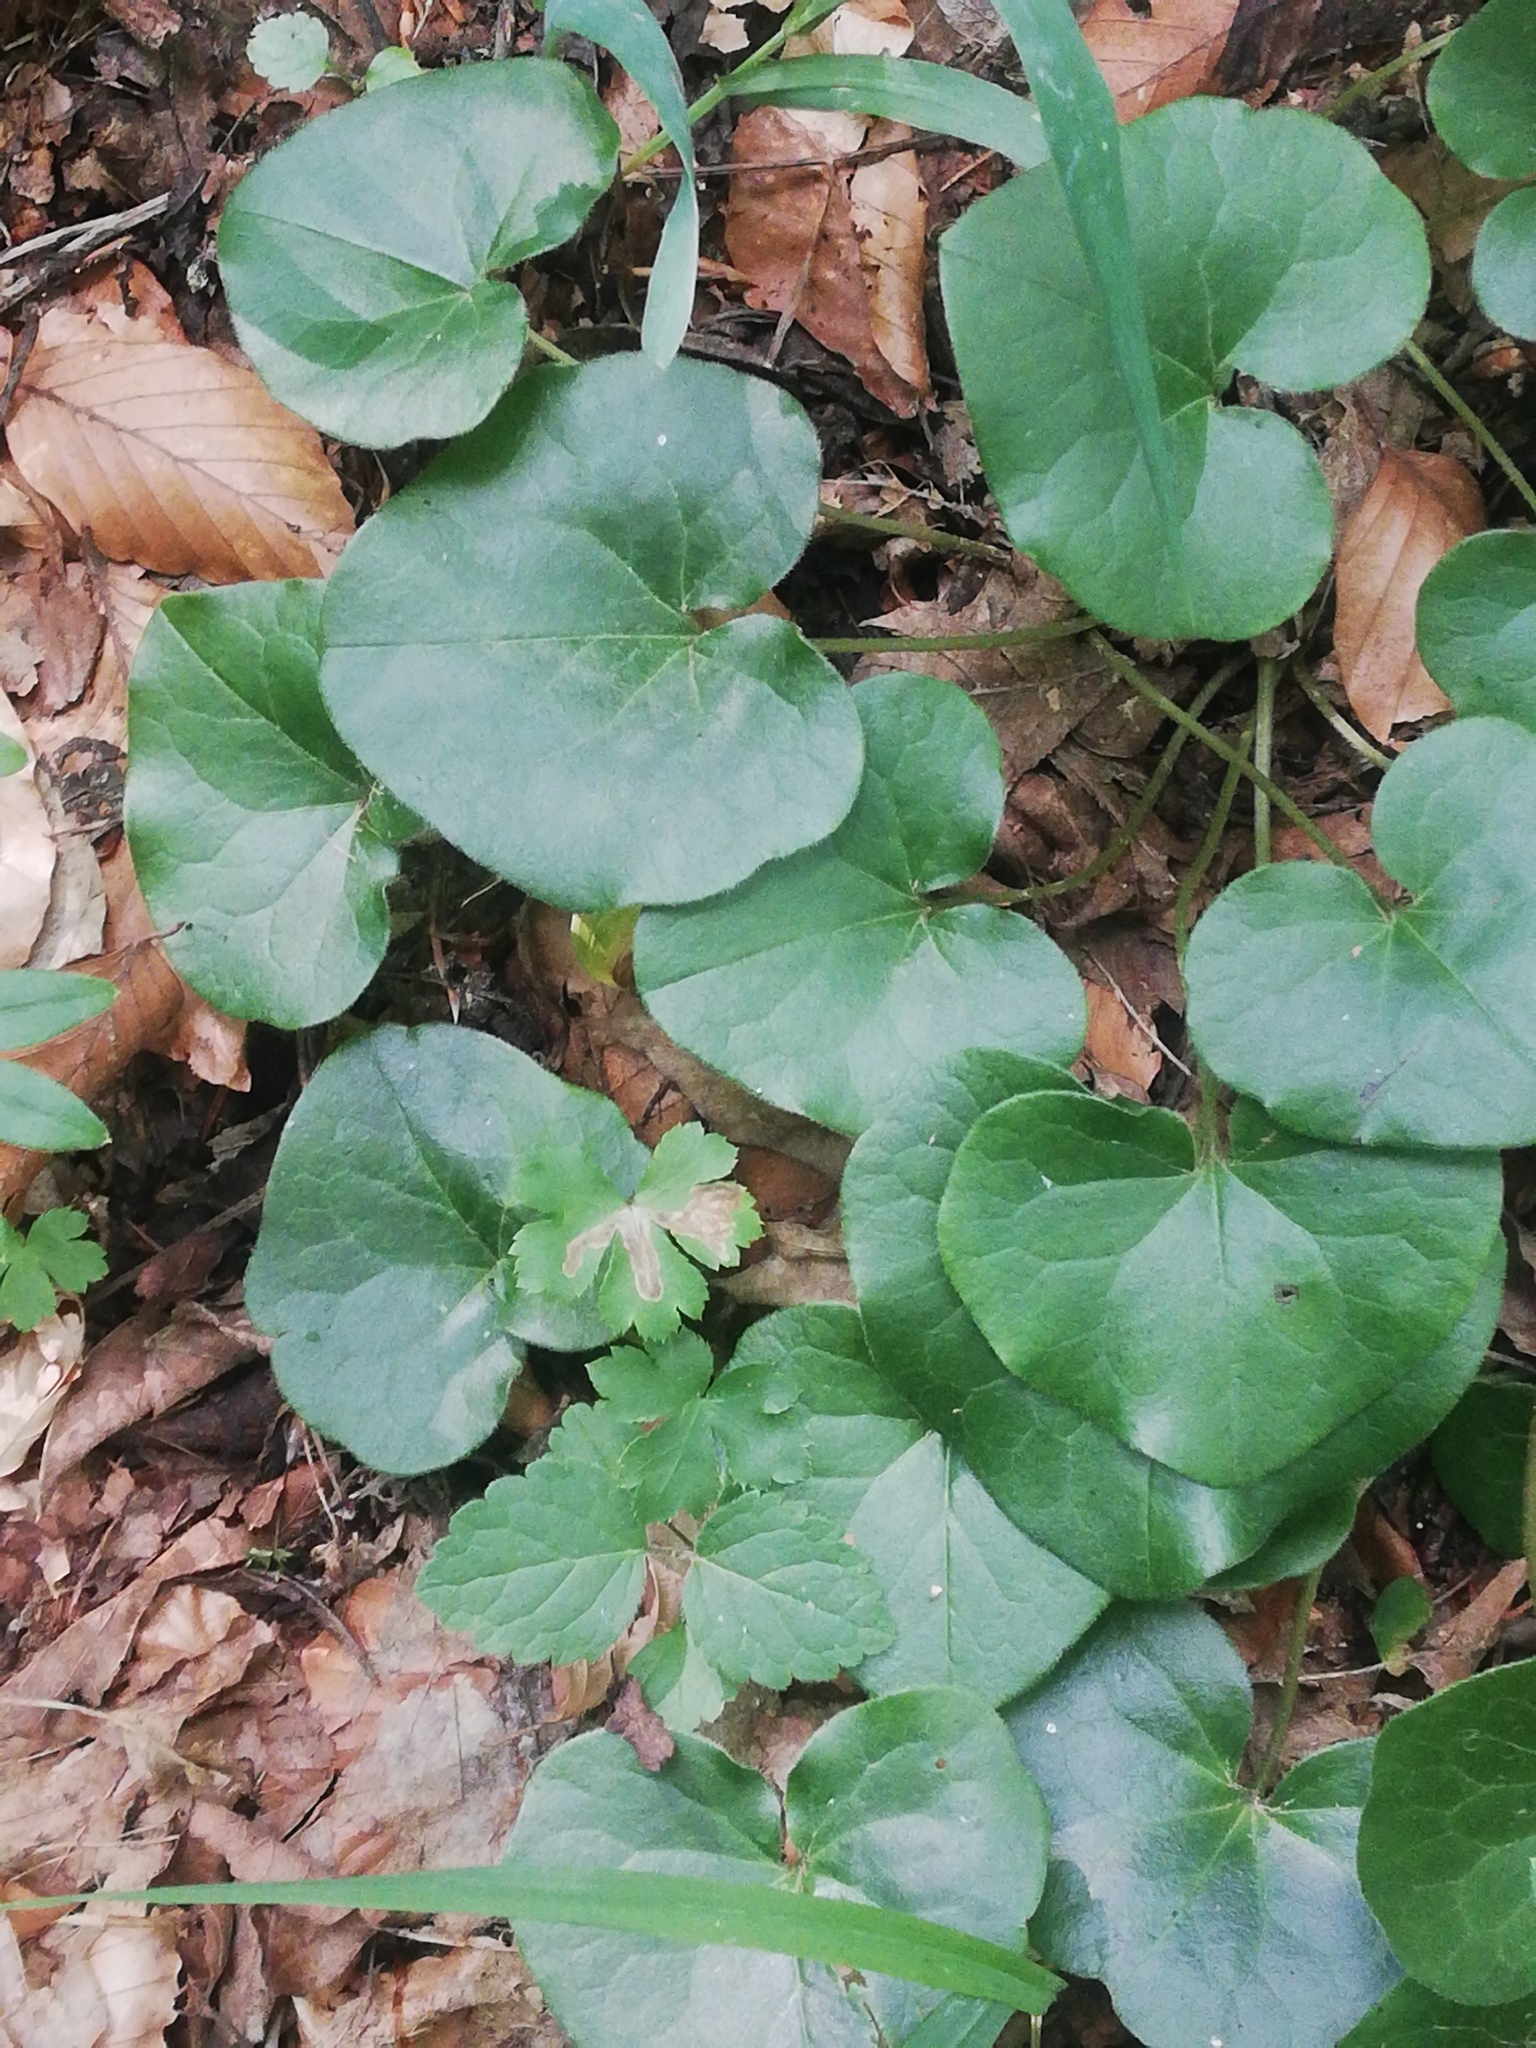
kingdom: Plantae
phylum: Tracheophyta
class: Magnoliopsida
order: Piperales
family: Aristolochiaceae
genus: Asarum
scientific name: Asarum europaeum
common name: Asarabacca
